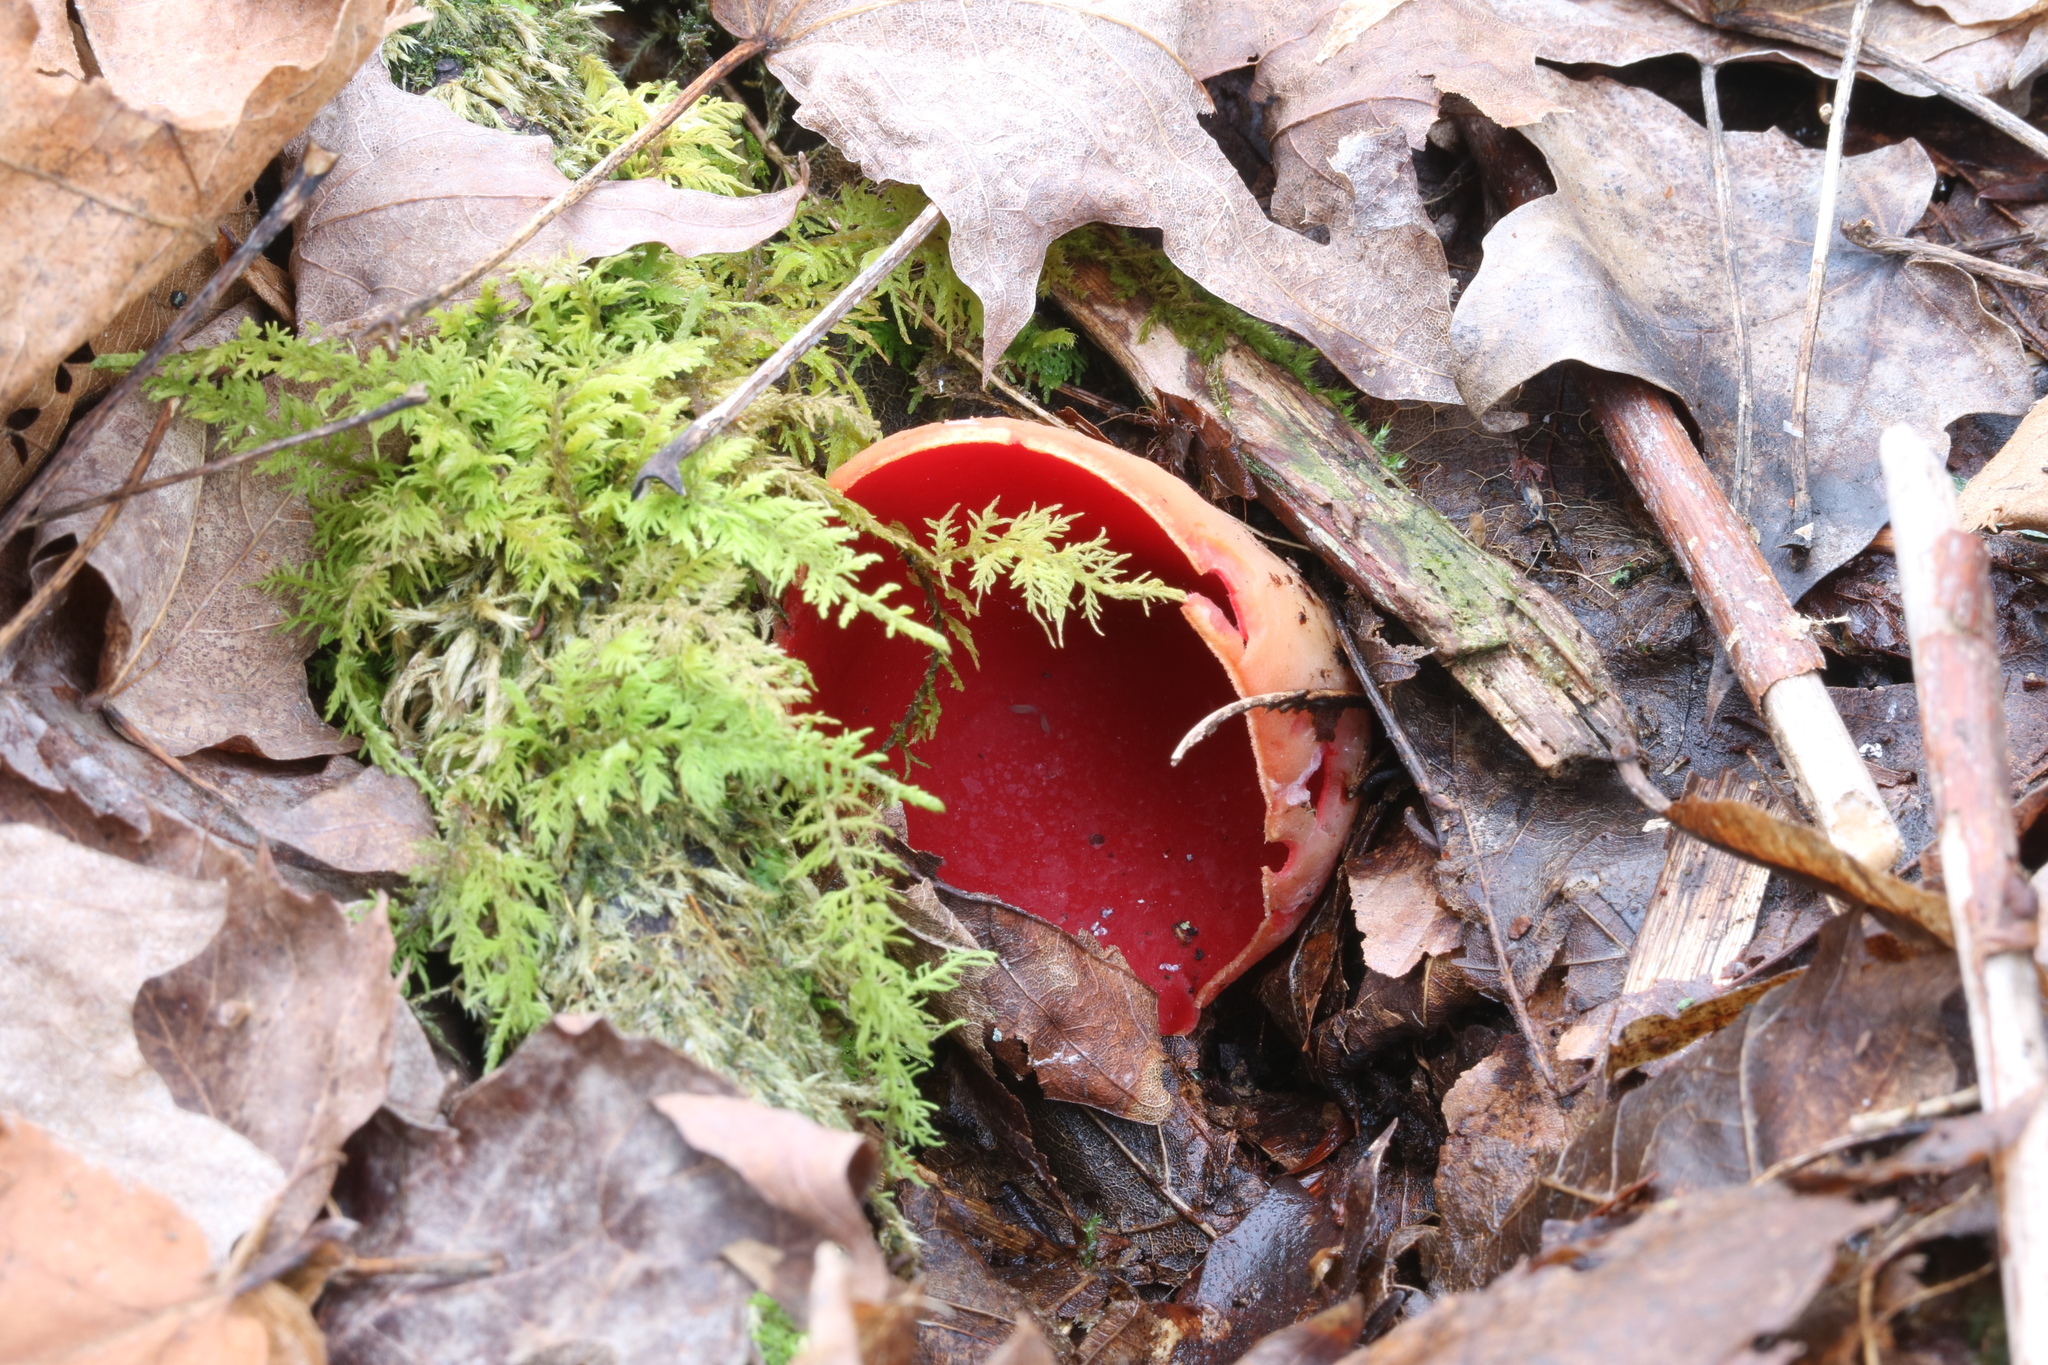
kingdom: Fungi
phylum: Ascomycota
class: Pezizomycetes
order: Pezizales
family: Sarcoscyphaceae
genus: Sarcoscypha
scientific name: Sarcoscypha austriaca
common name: Scarlet elfcup
